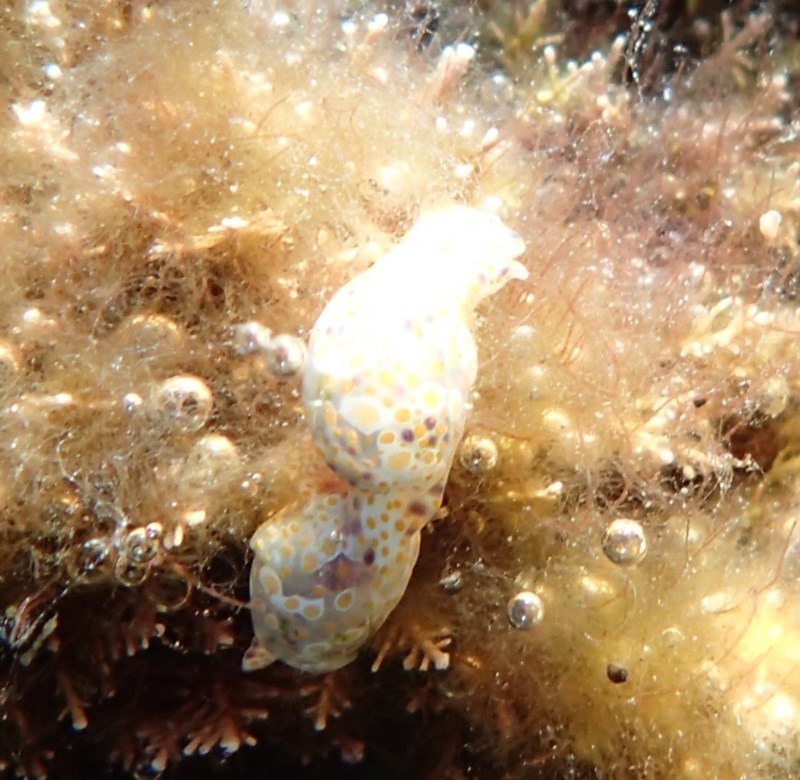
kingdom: Animalia
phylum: Mollusca
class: Gastropoda
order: Cephalaspidea
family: Haminoeidae
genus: Lamprohaminoea
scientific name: Lamprohaminoea cymbalum
